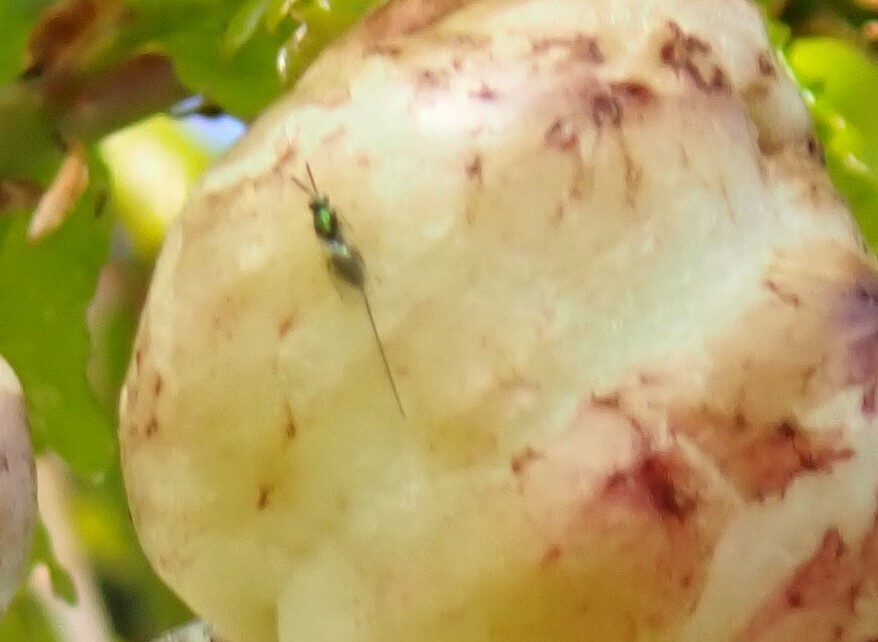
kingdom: Animalia
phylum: Arthropoda
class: Insecta
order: Hymenoptera
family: Torymidae
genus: Torymus
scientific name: Torymus affinis
